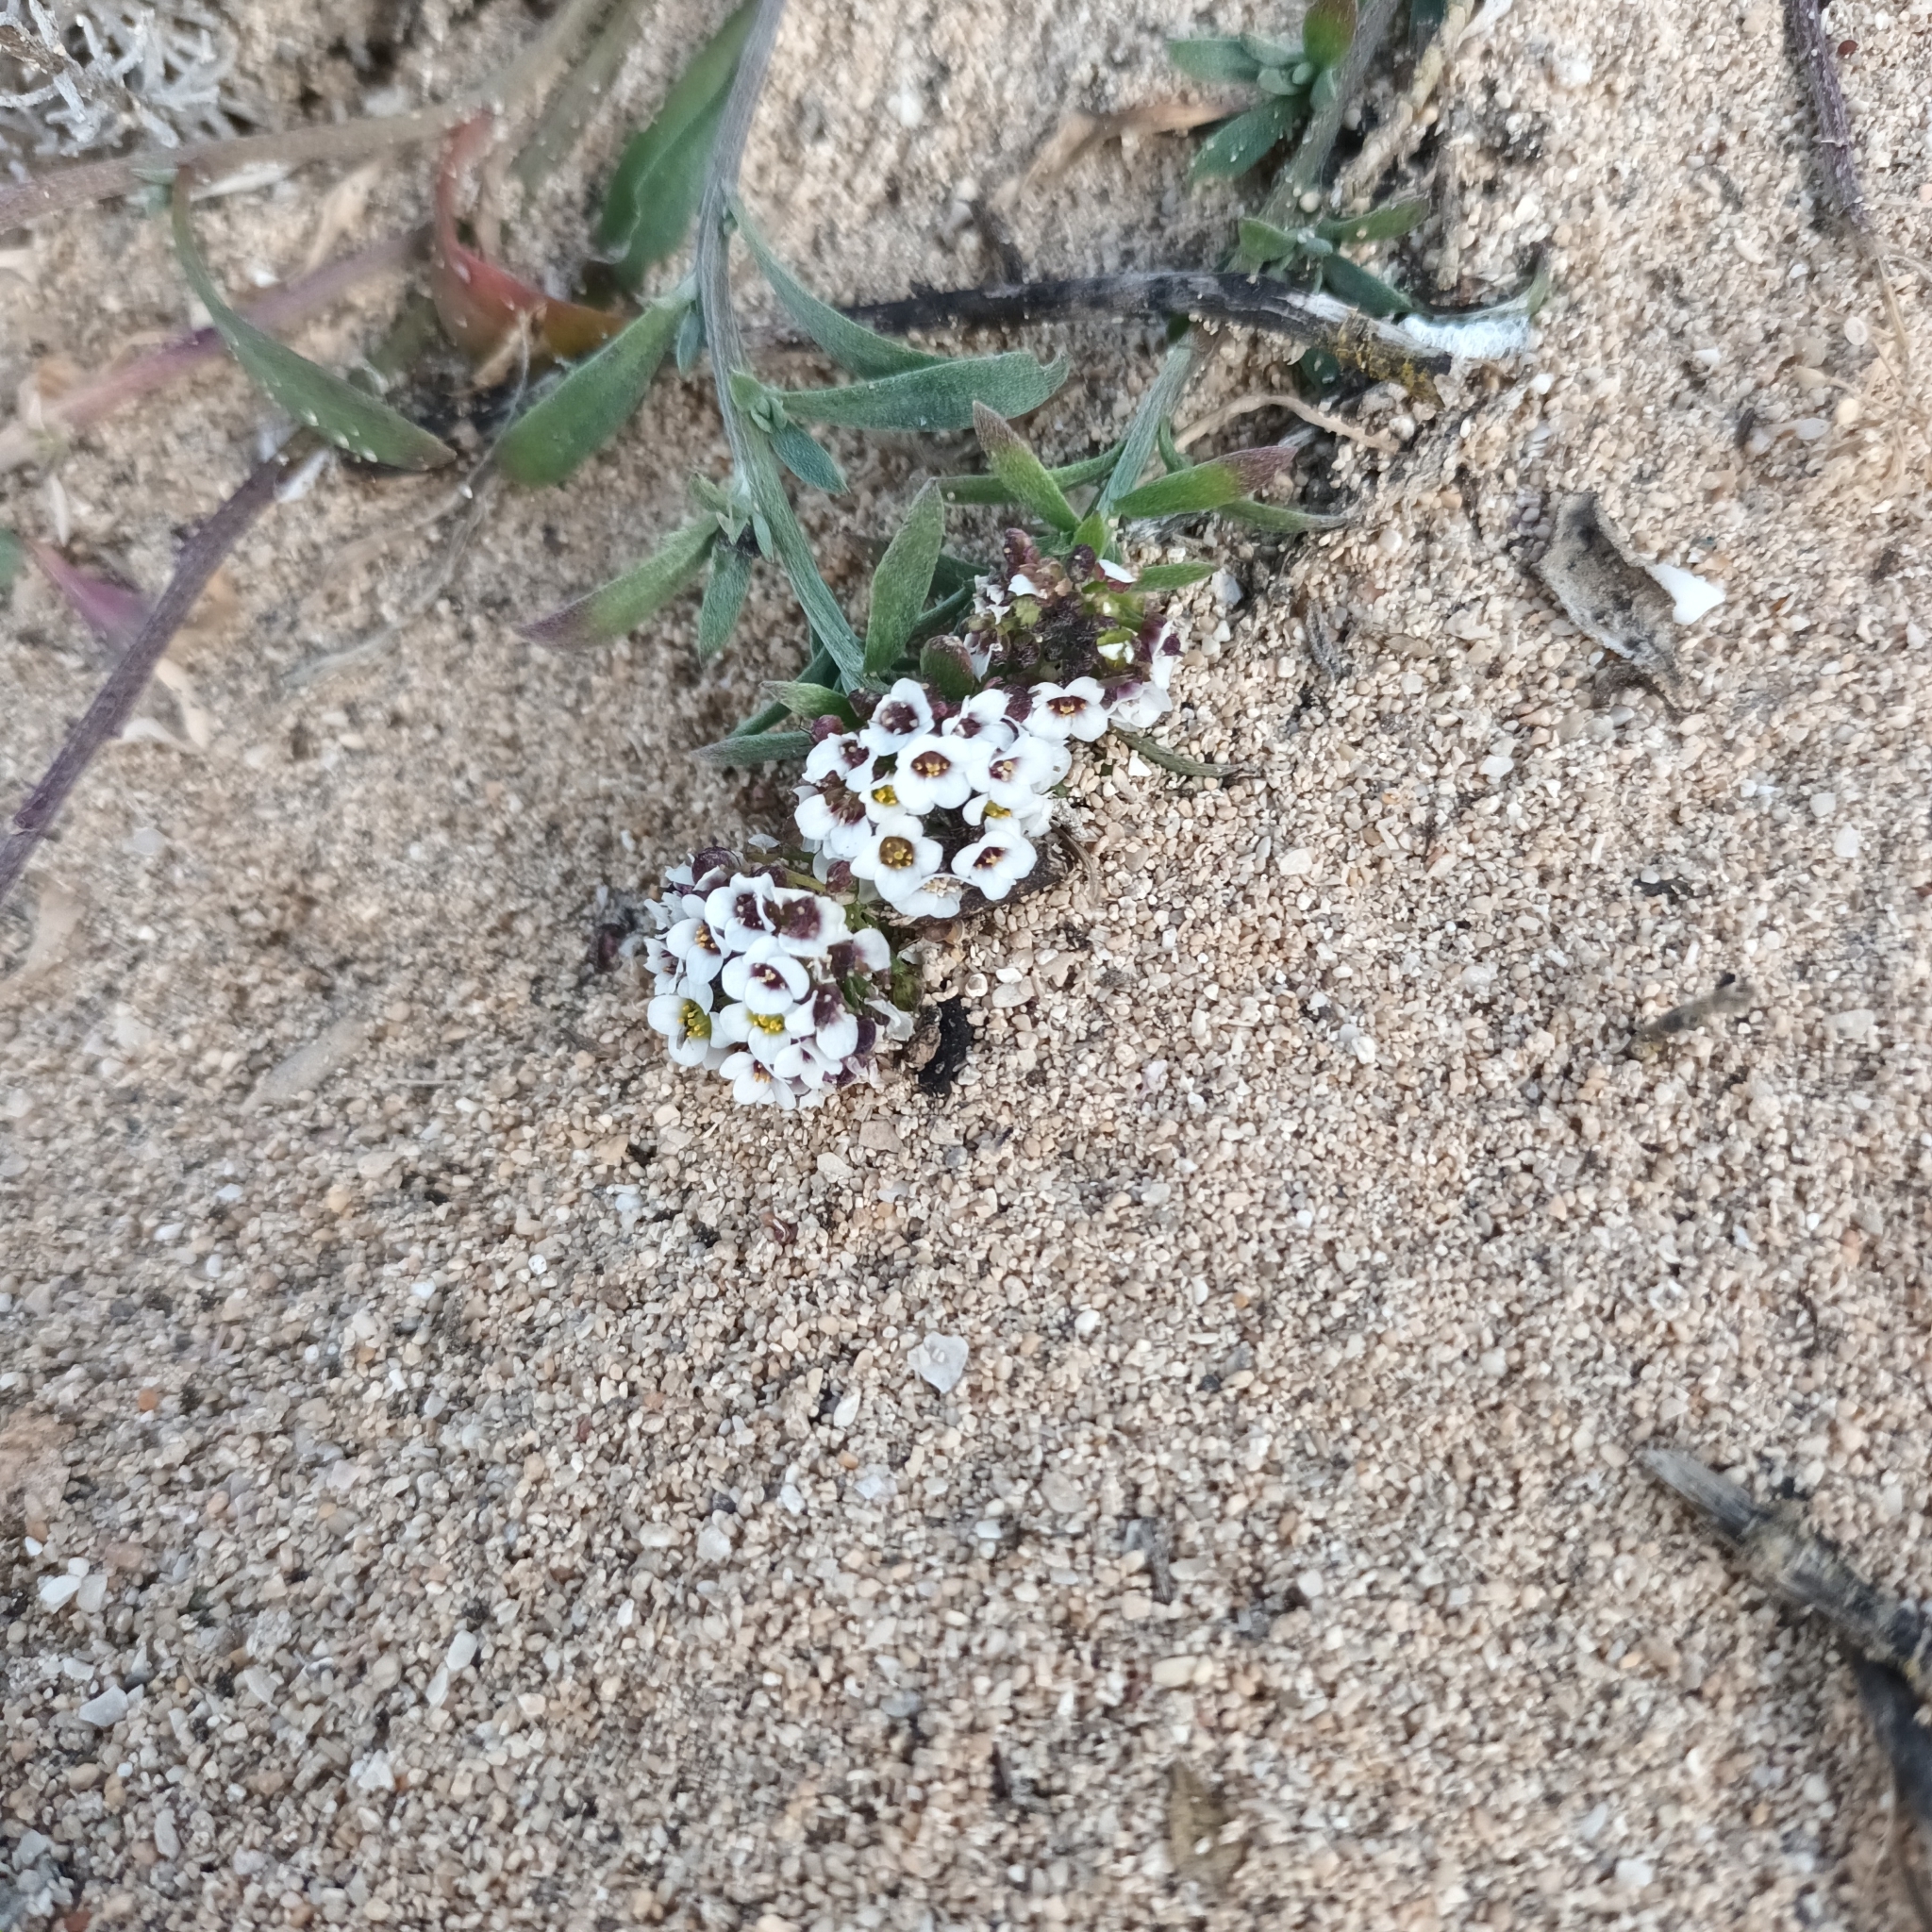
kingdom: Plantae
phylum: Tracheophyta
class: Magnoliopsida
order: Brassicales
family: Brassicaceae
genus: Lobularia
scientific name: Lobularia maritima
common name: Sweet alison
